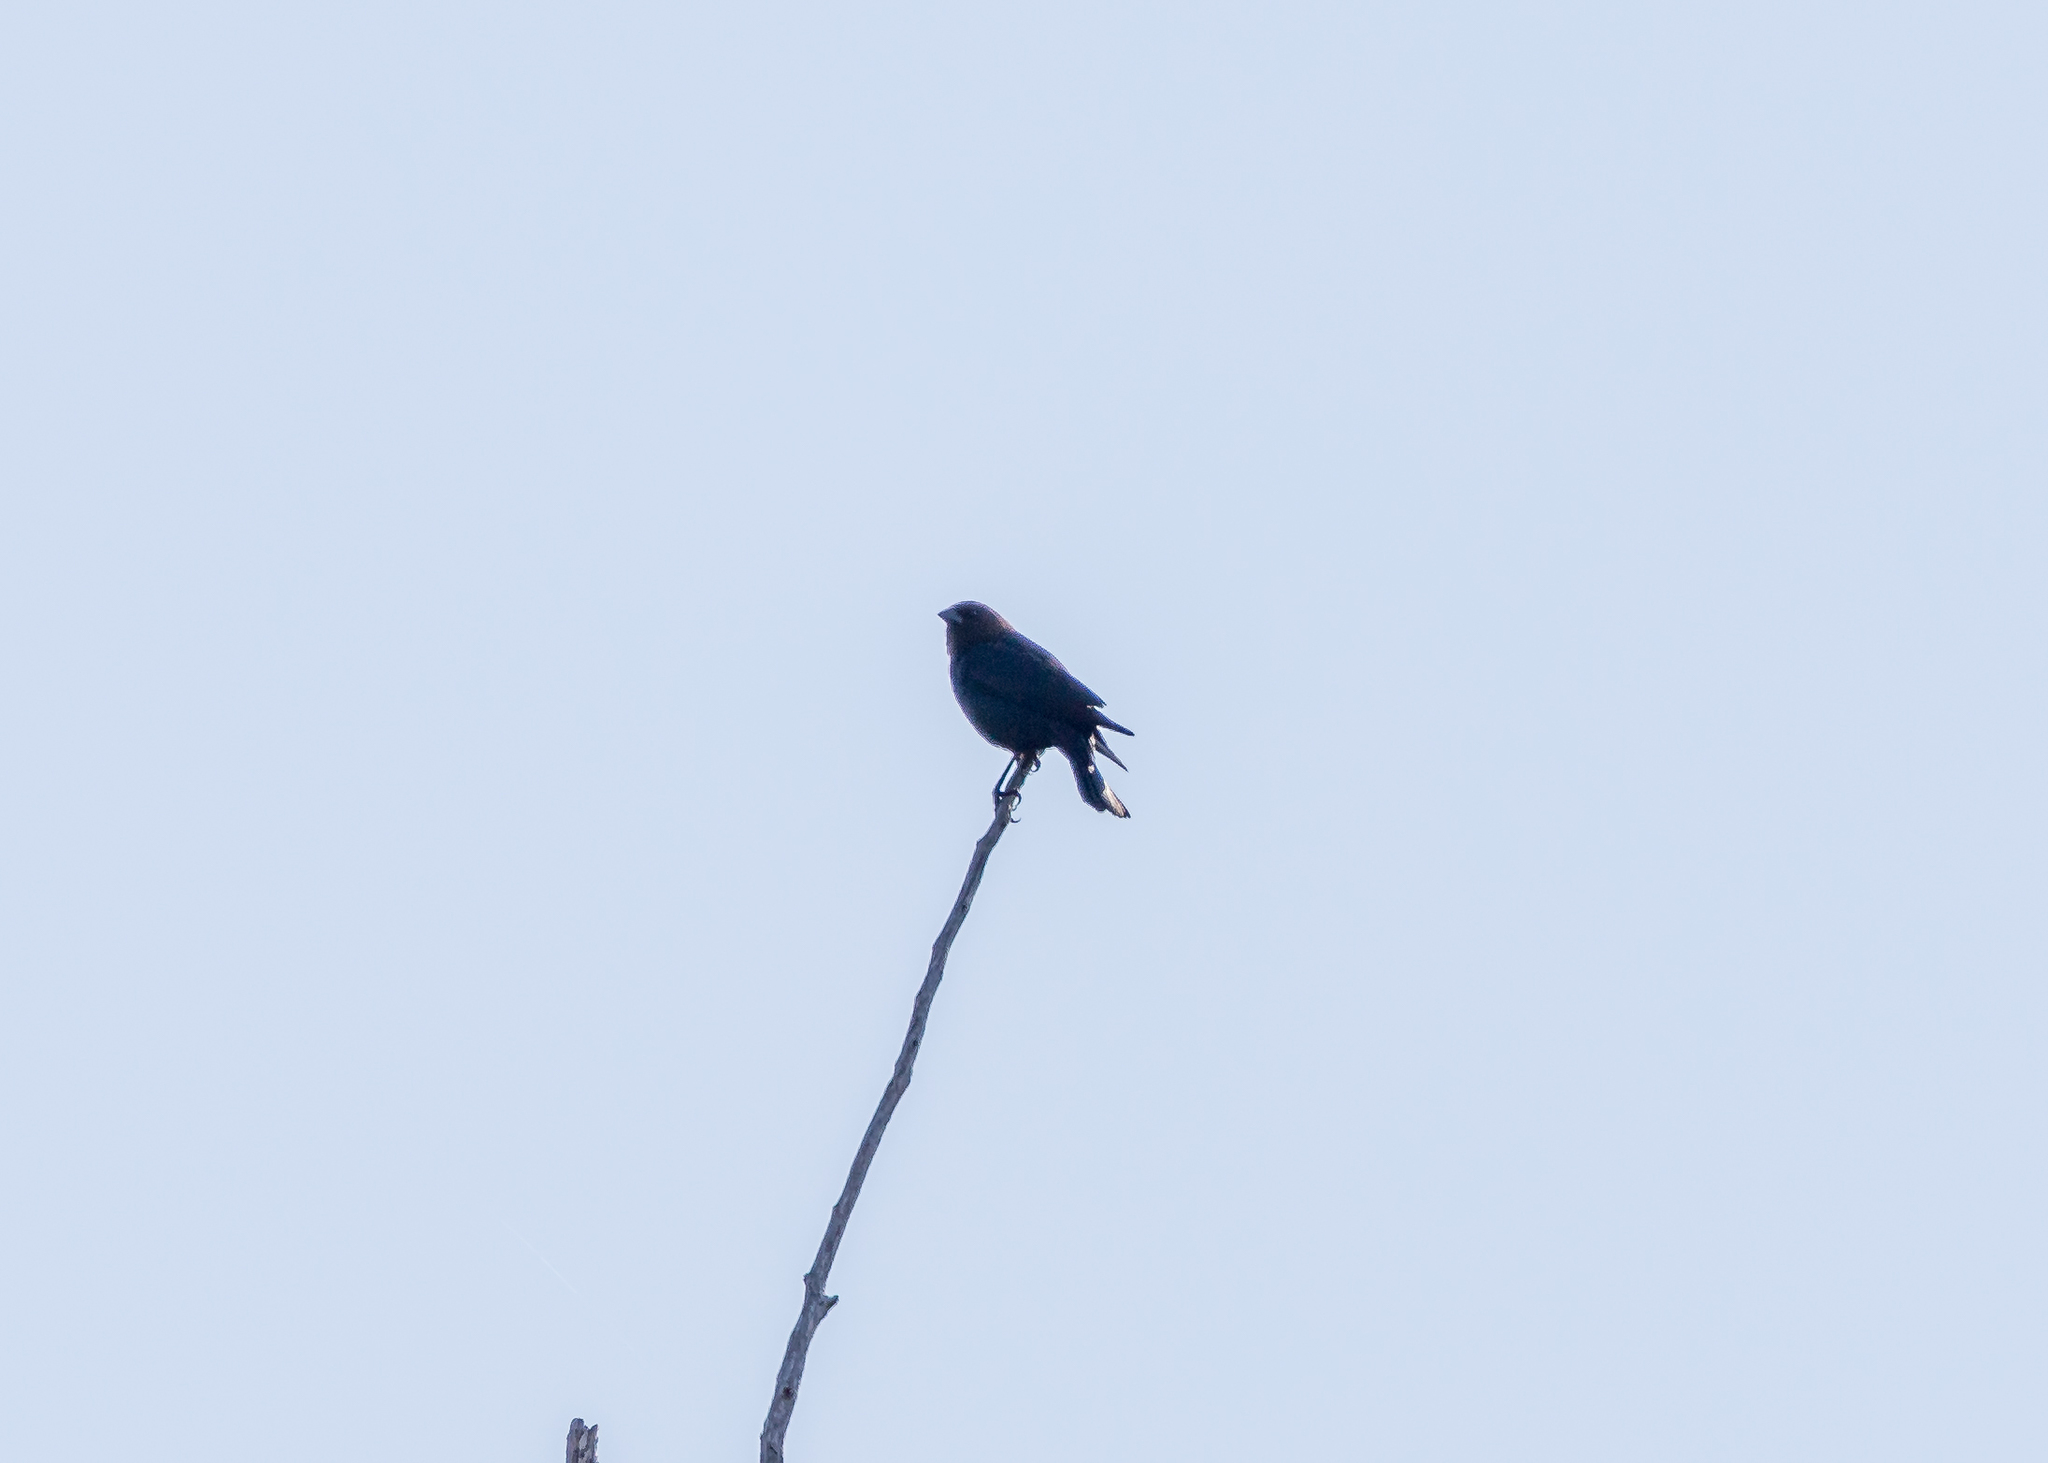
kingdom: Animalia
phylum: Chordata
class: Aves
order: Passeriformes
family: Icteridae
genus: Molothrus
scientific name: Molothrus ater
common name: Brown-headed cowbird
